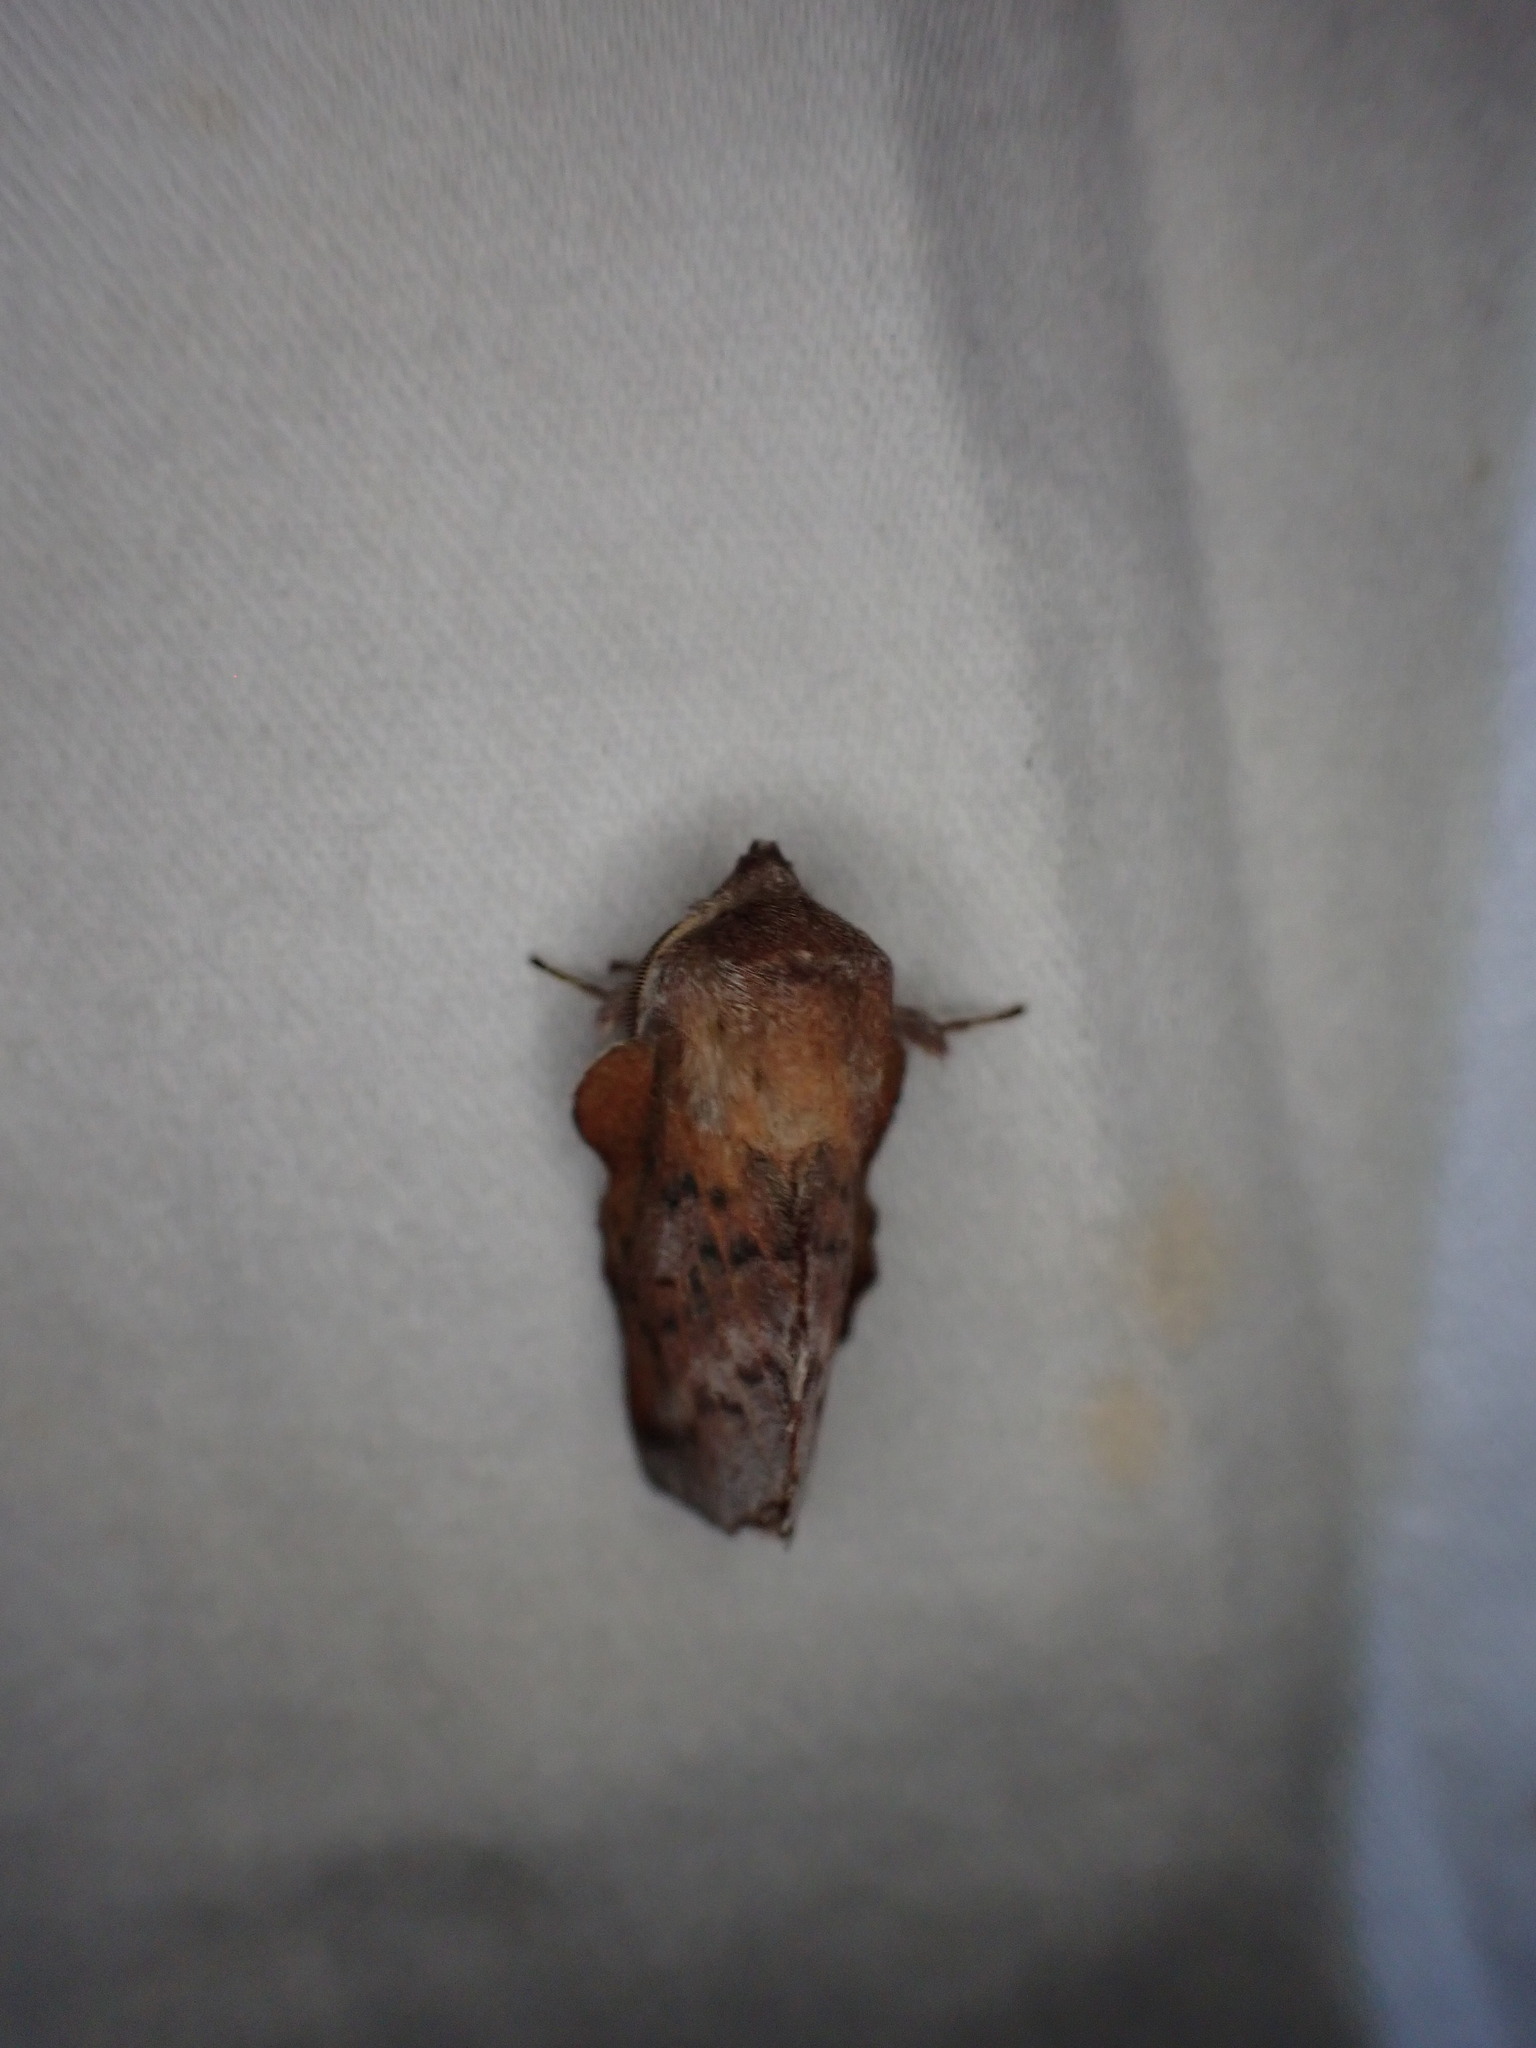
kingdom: Animalia
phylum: Arthropoda
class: Insecta
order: Lepidoptera
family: Lasiocampidae
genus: Phyllodesma
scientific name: Phyllodesma americana
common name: American lappet moth
